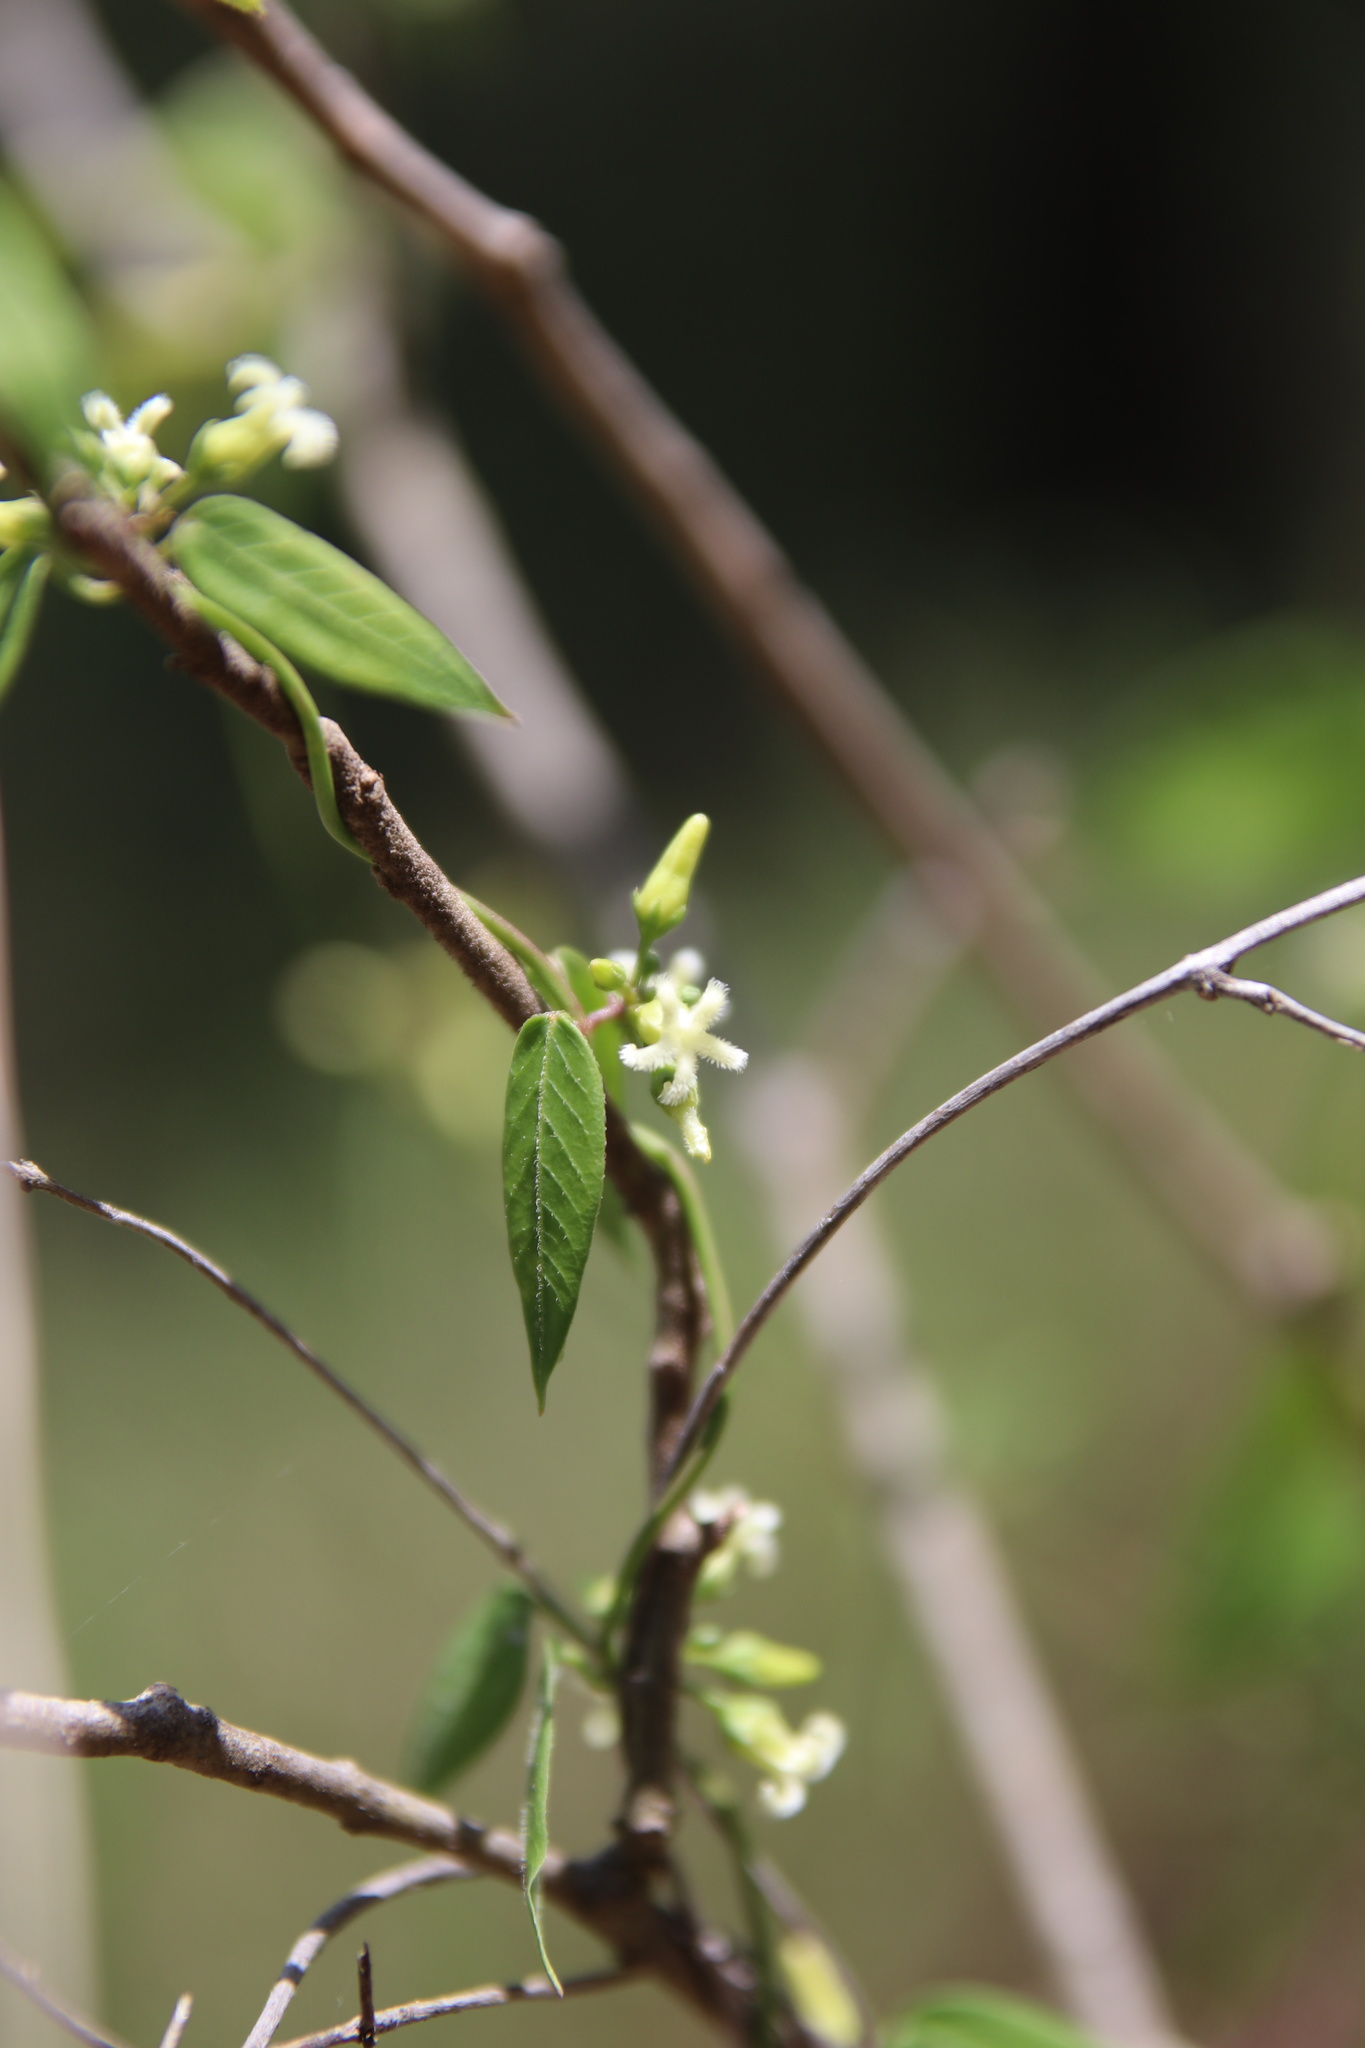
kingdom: Plantae
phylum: Tracheophyta
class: Magnoliopsida
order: Gentianales
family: Apocynaceae
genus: Metastelma
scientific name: Metastelma barbigerum
